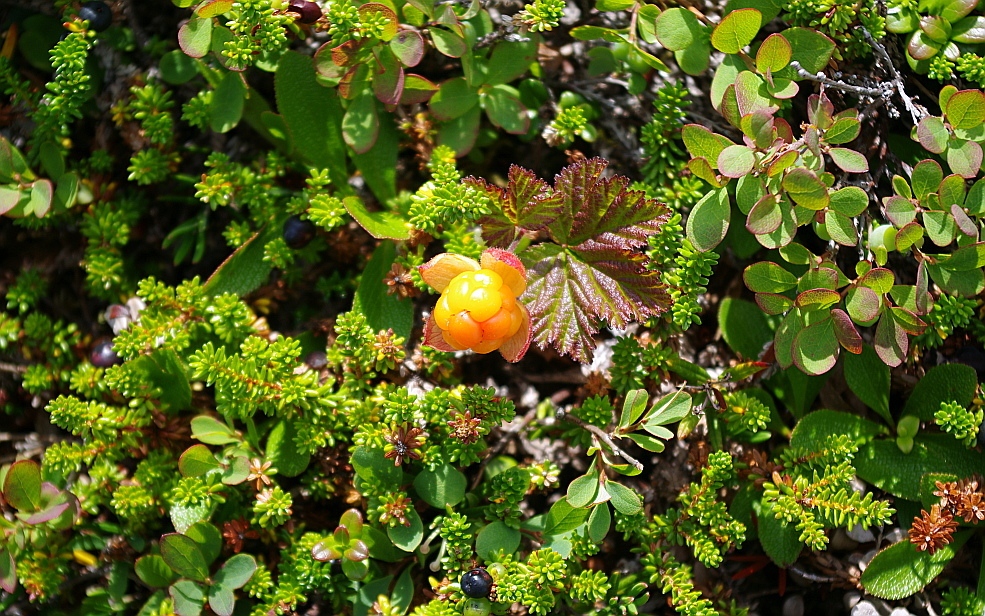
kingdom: Plantae
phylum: Tracheophyta
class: Magnoliopsida
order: Rosales
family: Rosaceae
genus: Rubus
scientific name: Rubus chamaemorus
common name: Cloudberry
